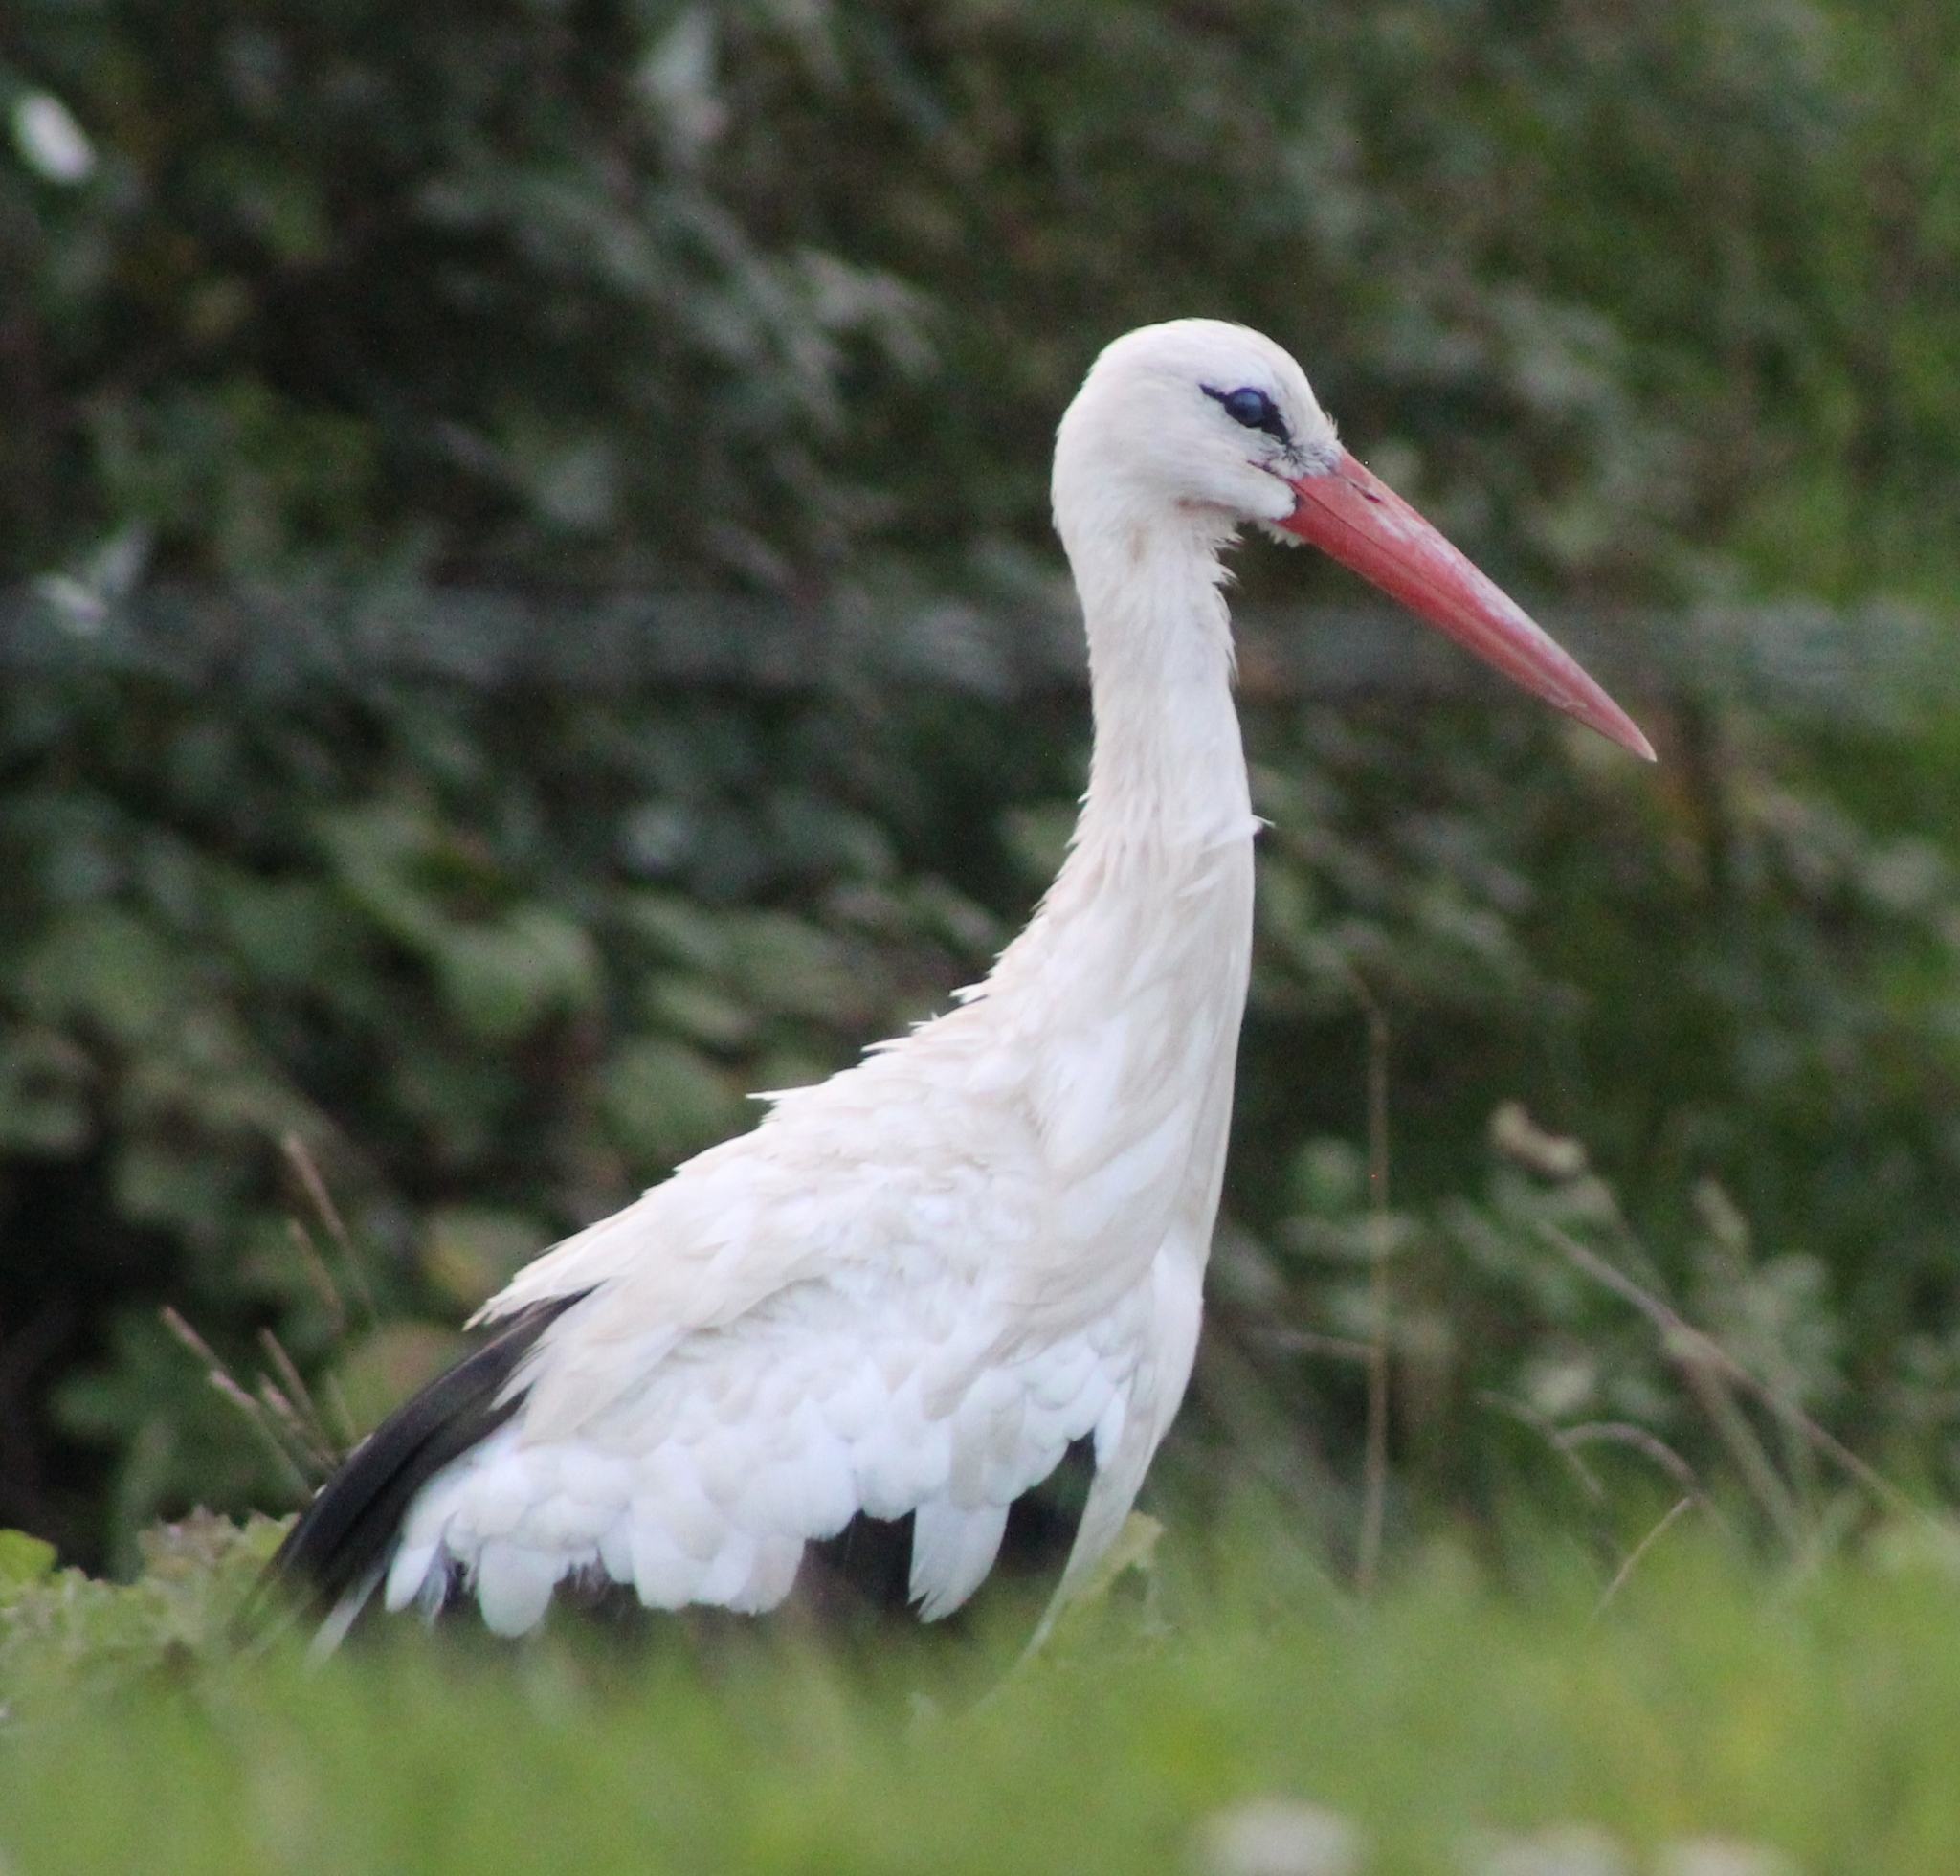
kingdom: Animalia
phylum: Chordata
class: Aves
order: Ciconiiformes
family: Ciconiidae
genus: Ciconia
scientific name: Ciconia ciconia
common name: White stork
